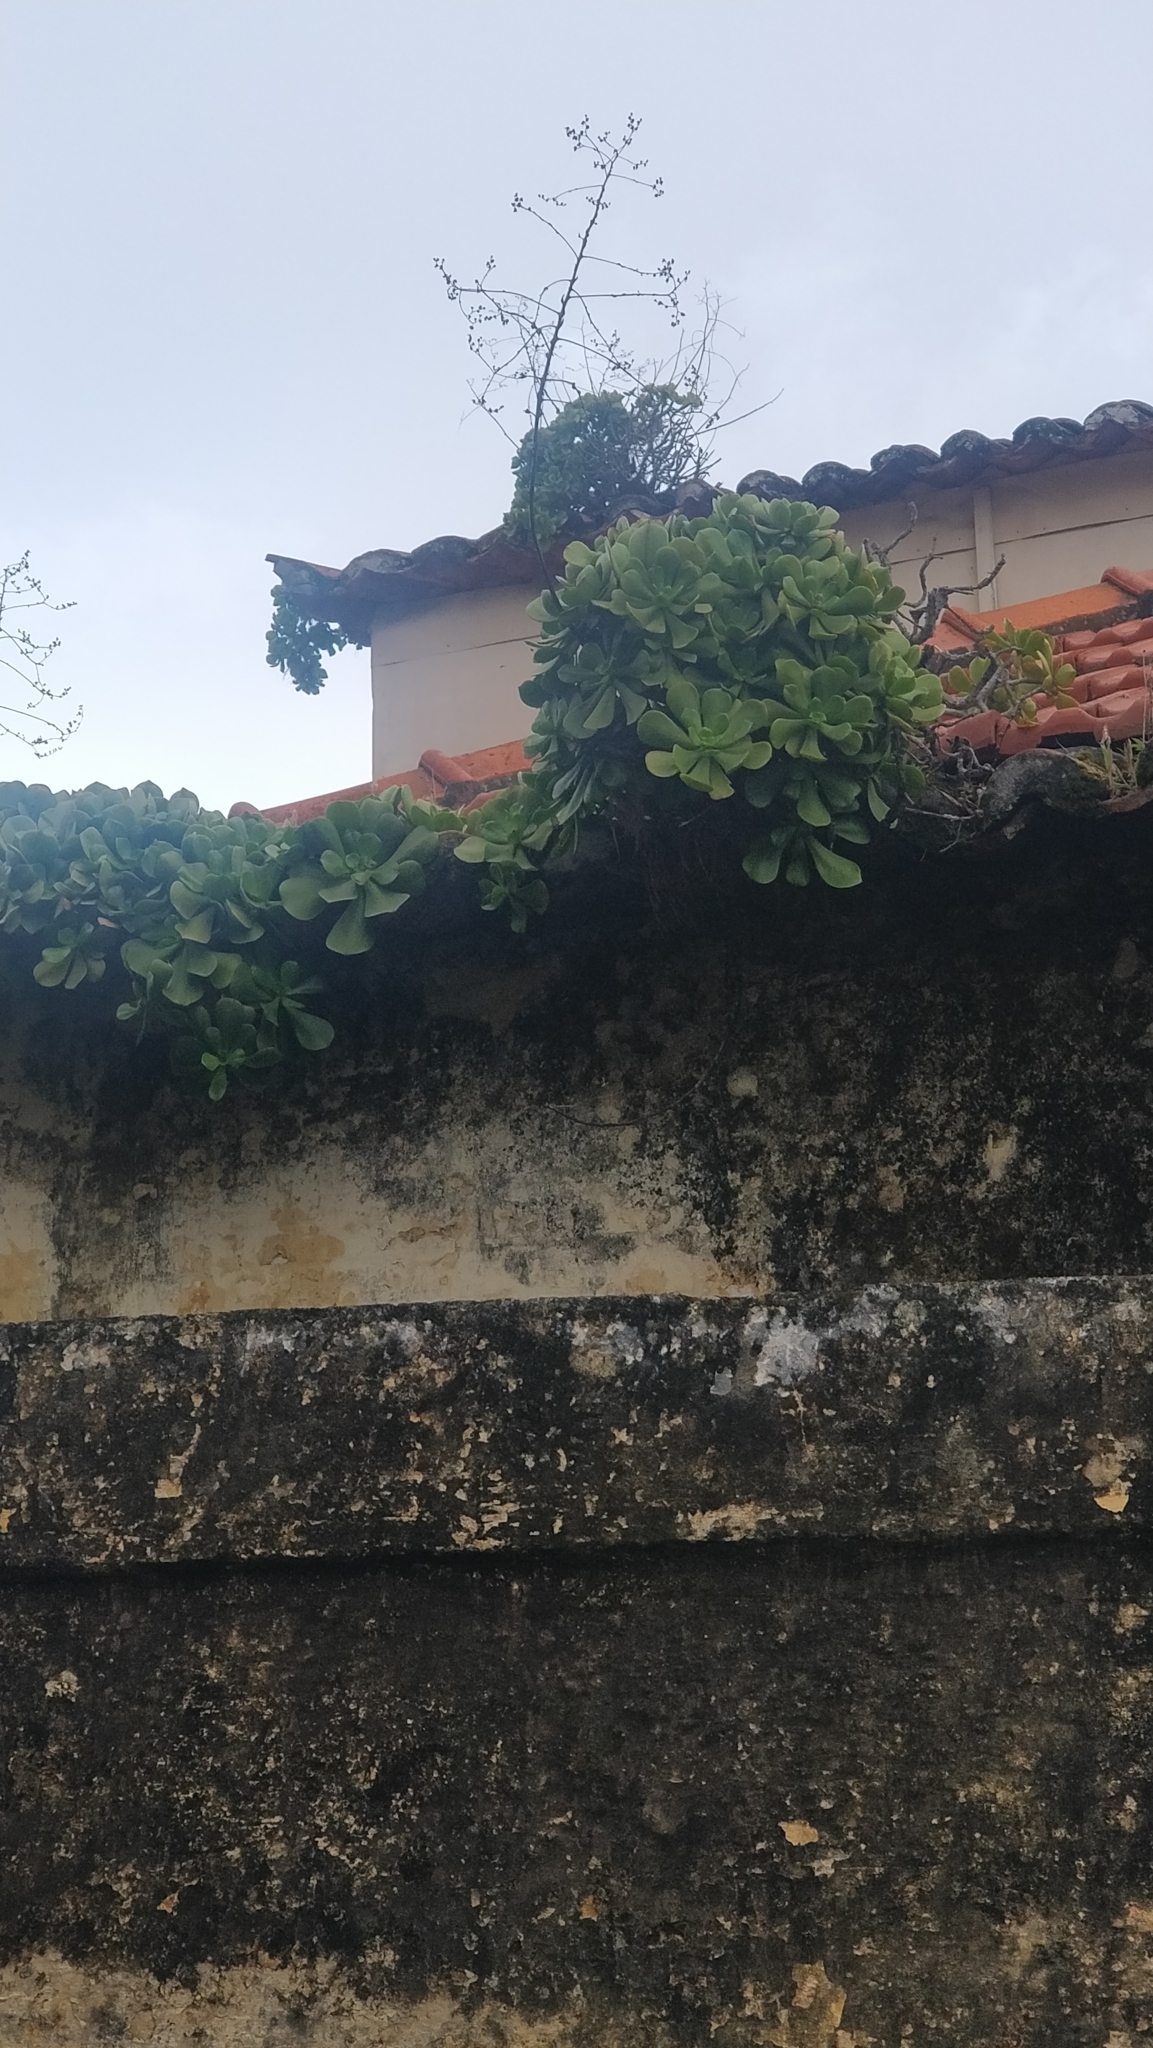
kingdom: Plantae
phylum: Tracheophyta
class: Magnoliopsida
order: Saxifragales
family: Crassulaceae
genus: Aeonium
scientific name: Aeonium glutinosum
